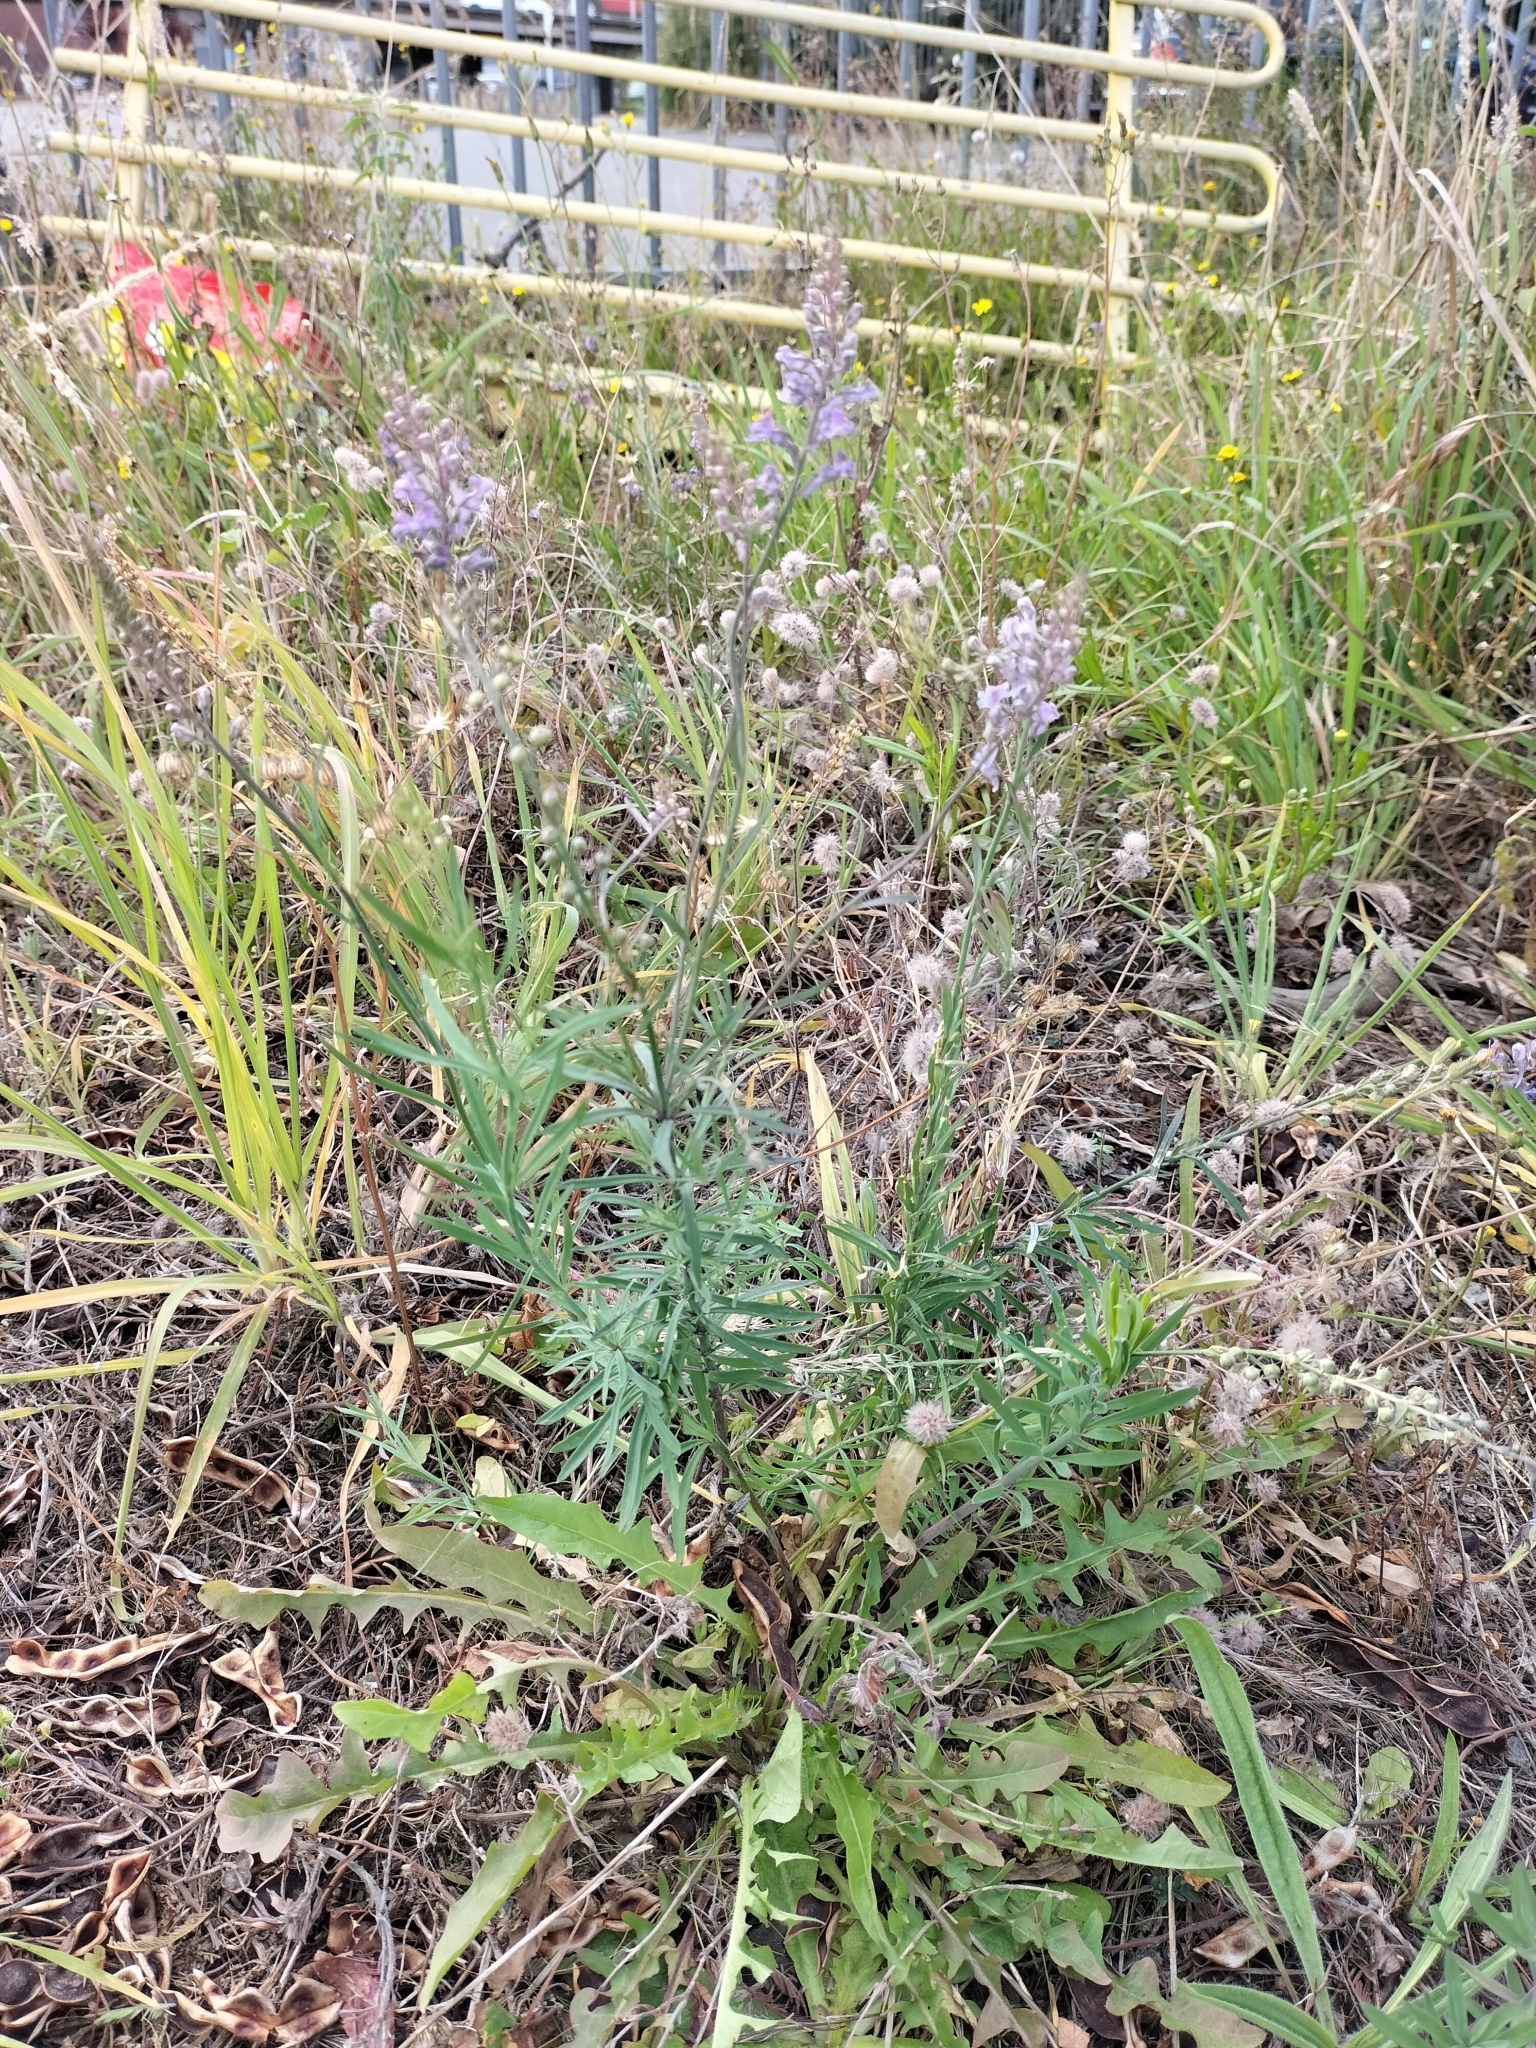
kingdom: Plantae
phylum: Tracheophyta
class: Magnoliopsida
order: Lamiales
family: Plantaginaceae
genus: Linaria
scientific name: Linaria purpurea
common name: Purple toadflax
